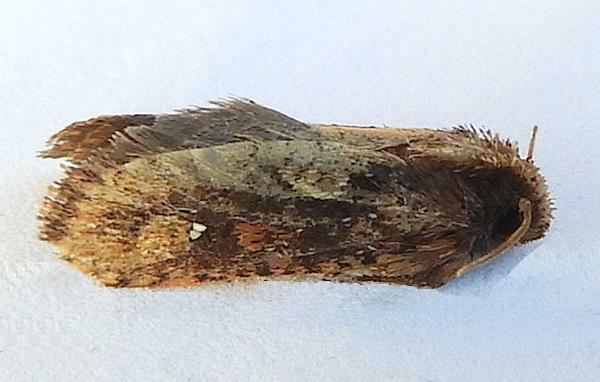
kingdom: Animalia
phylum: Arthropoda
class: Insecta
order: Lepidoptera
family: Tineidae
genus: Acrolophus
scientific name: Acrolophus walsinghami
